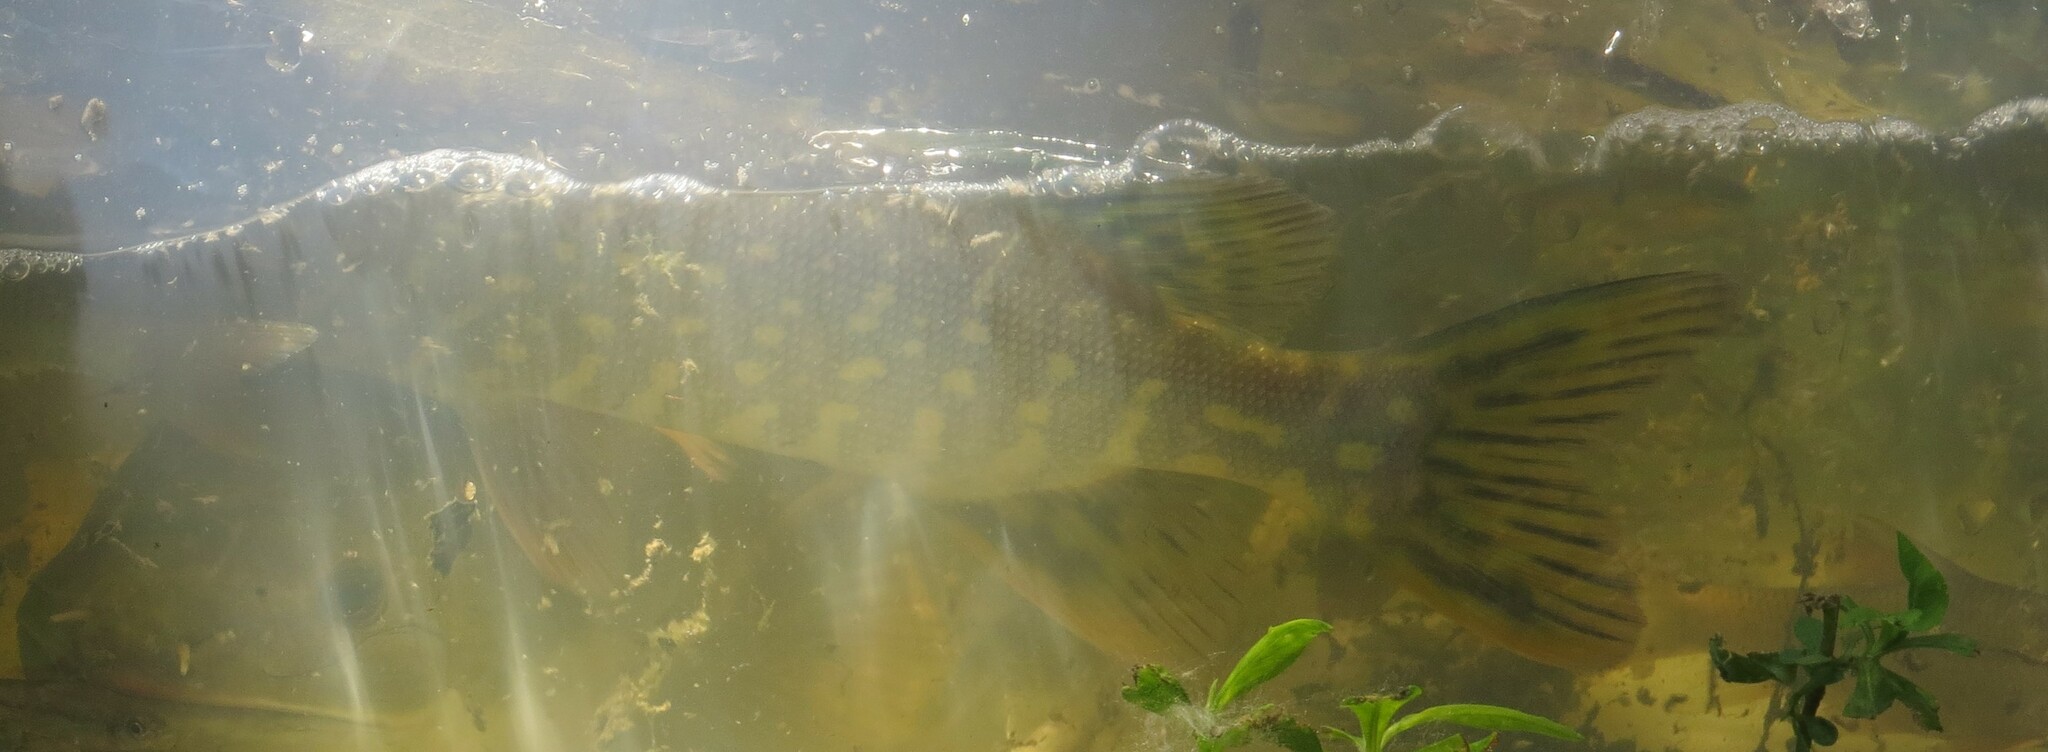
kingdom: Animalia
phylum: Chordata
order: Esociformes
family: Esocidae
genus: Esox
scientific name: Esox lucius
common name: Northern pike
